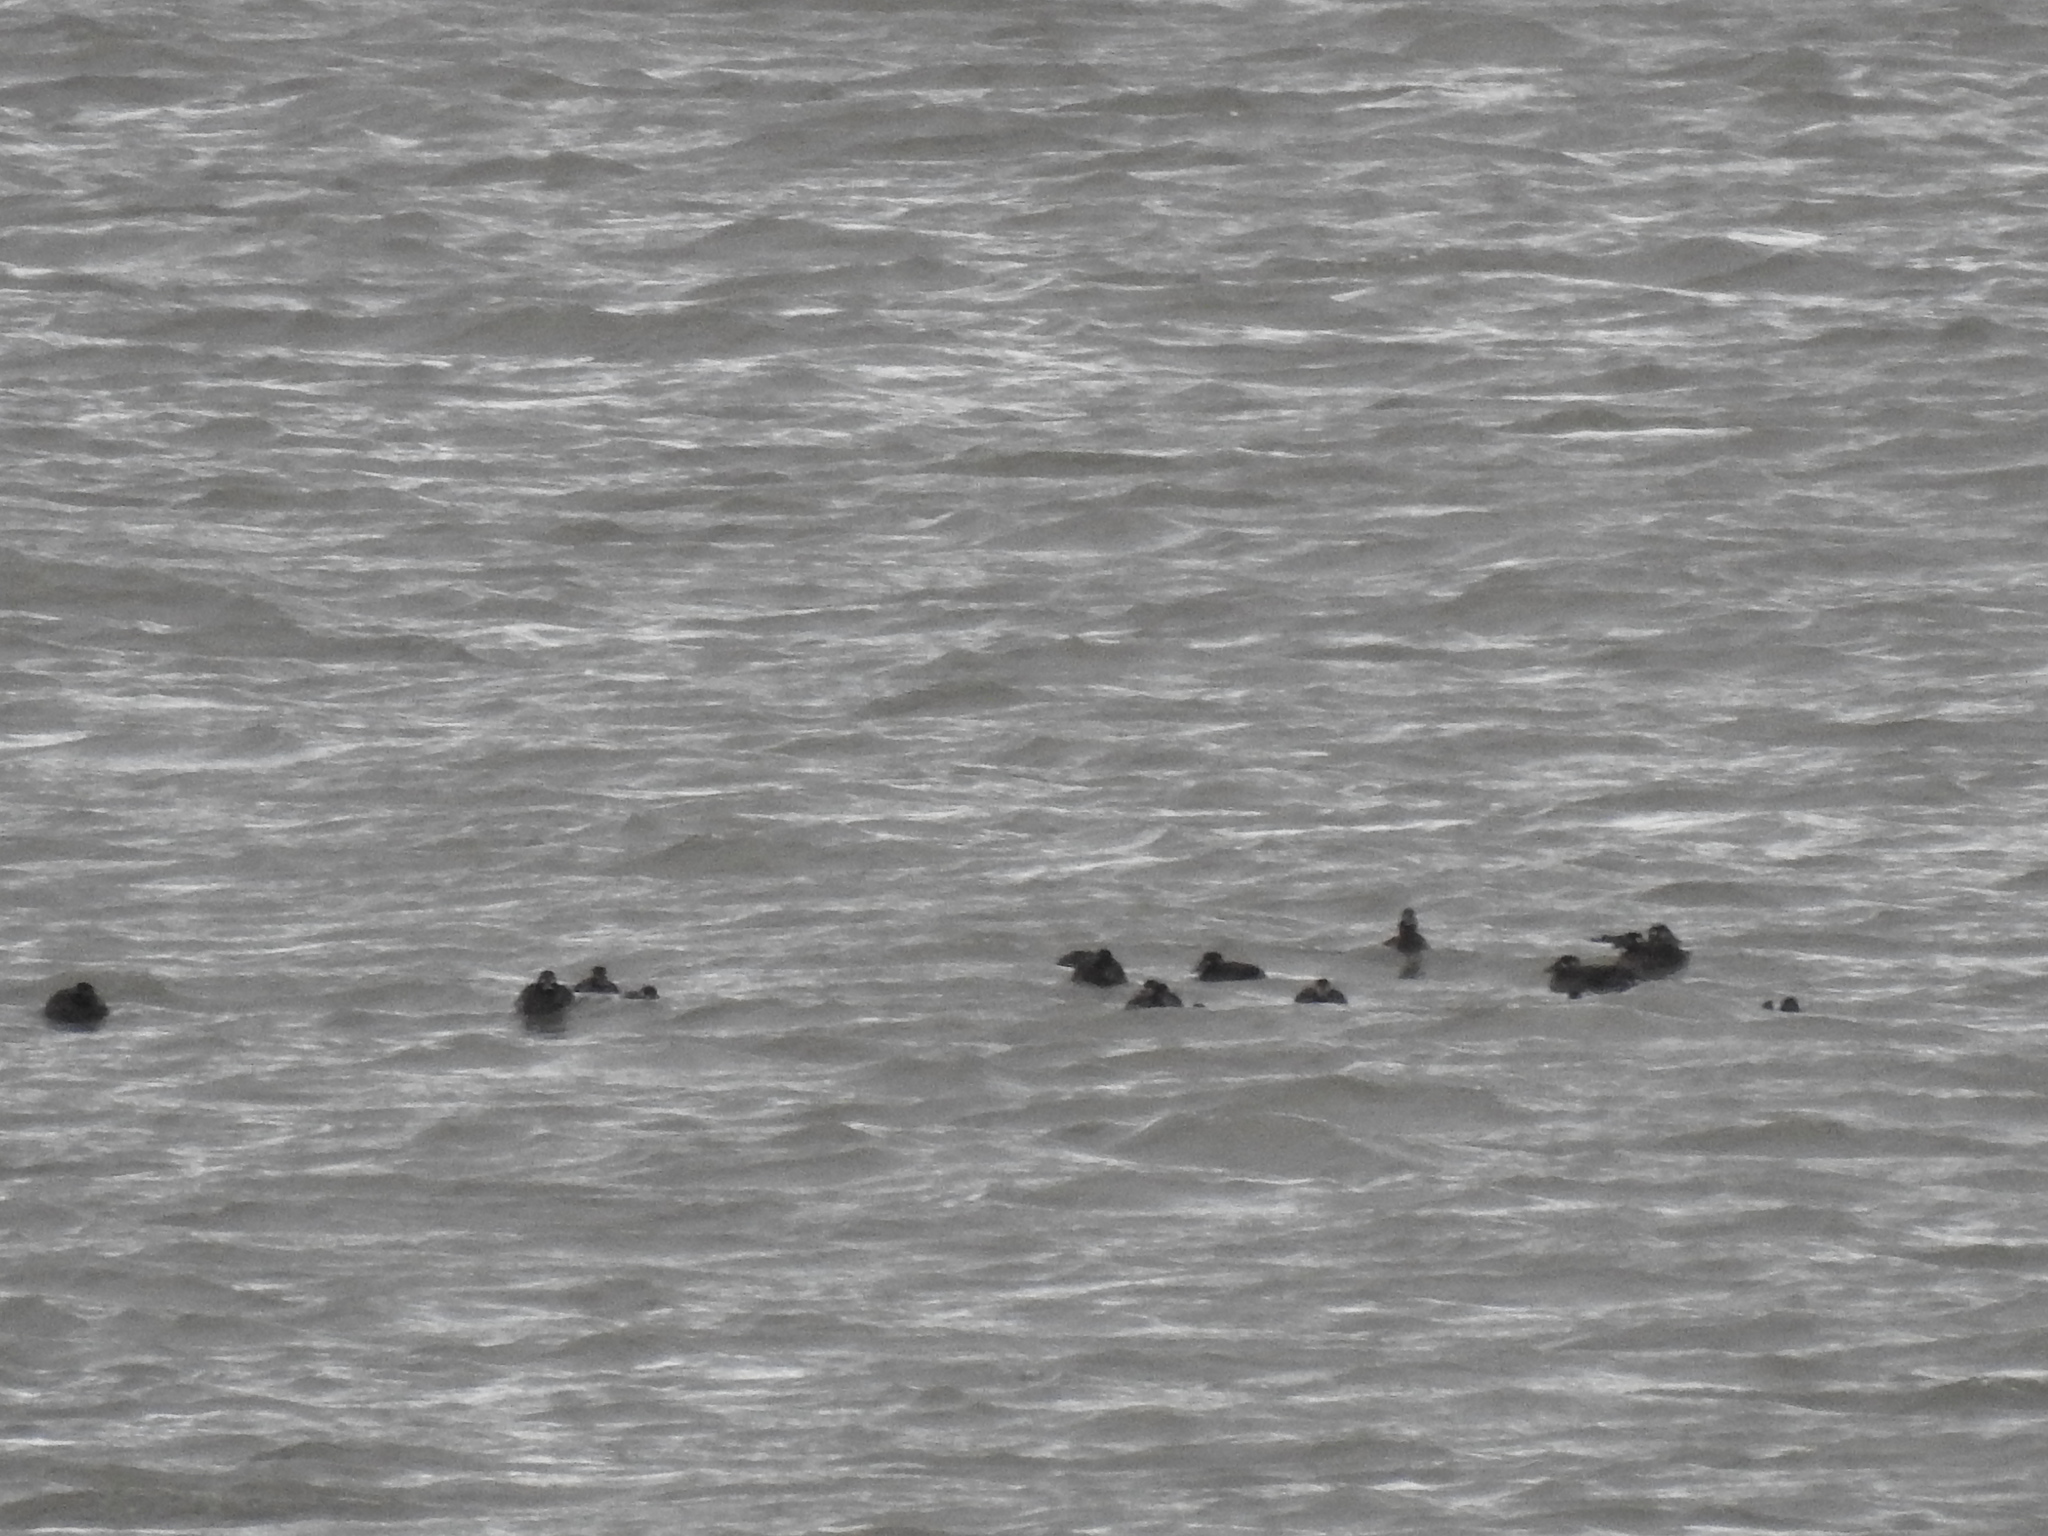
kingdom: Animalia
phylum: Chordata
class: Aves
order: Anseriformes
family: Anatidae
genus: Melanitta
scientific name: Melanitta perspicillata
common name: Surf scoter
